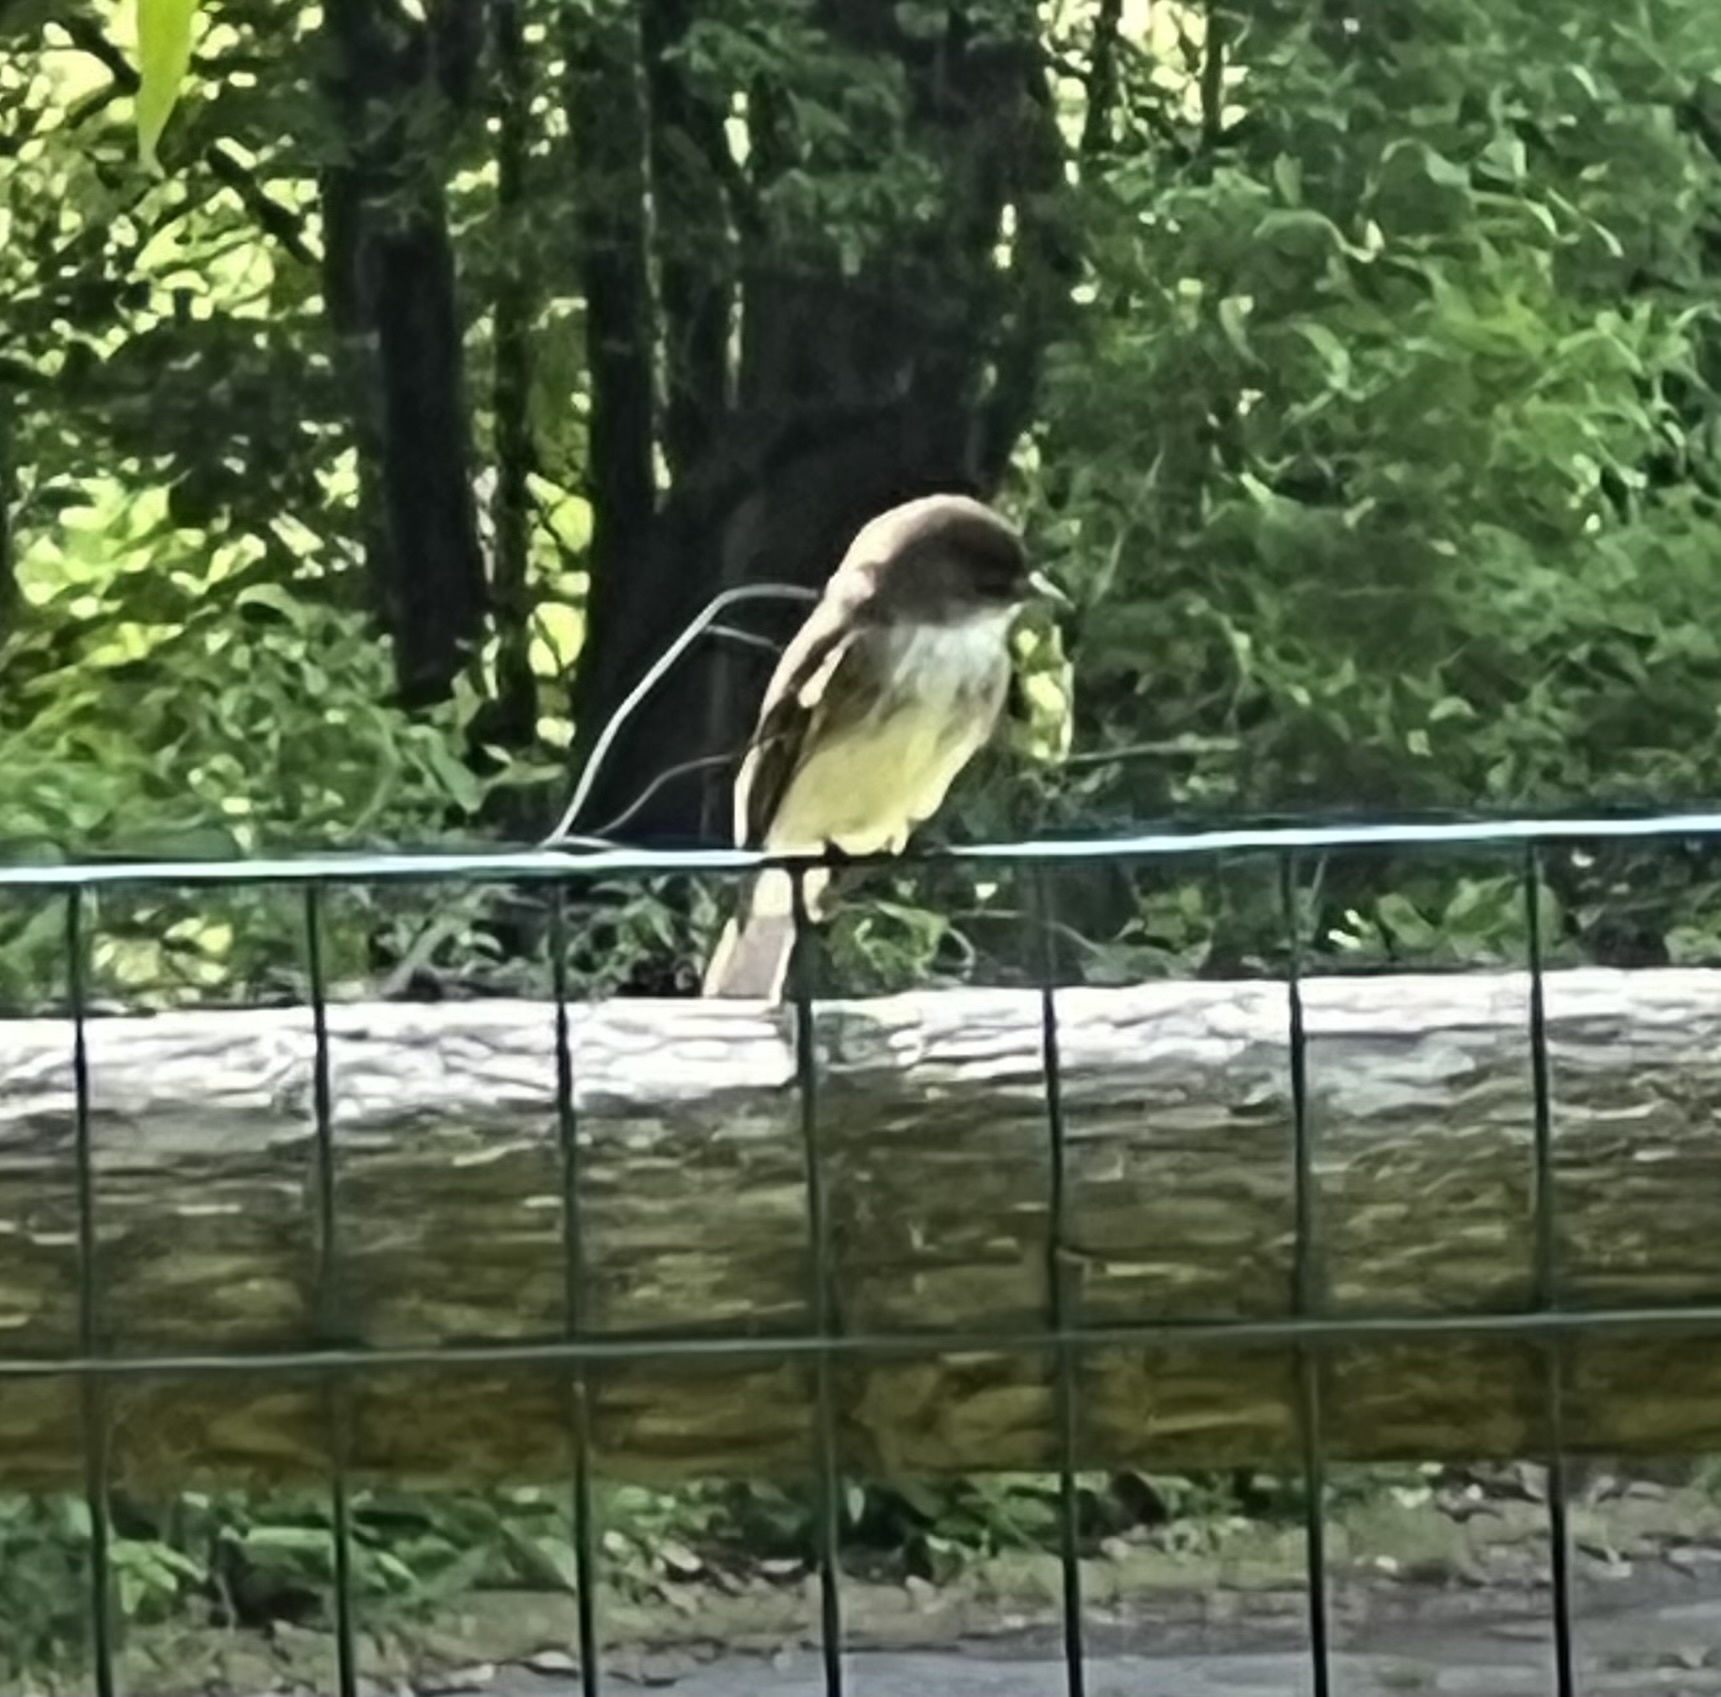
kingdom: Animalia
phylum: Chordata
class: Aves
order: Passeriformes
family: Tyrannidae
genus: Sayornis
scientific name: Sayornis phoebe
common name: Eastern phoebe
